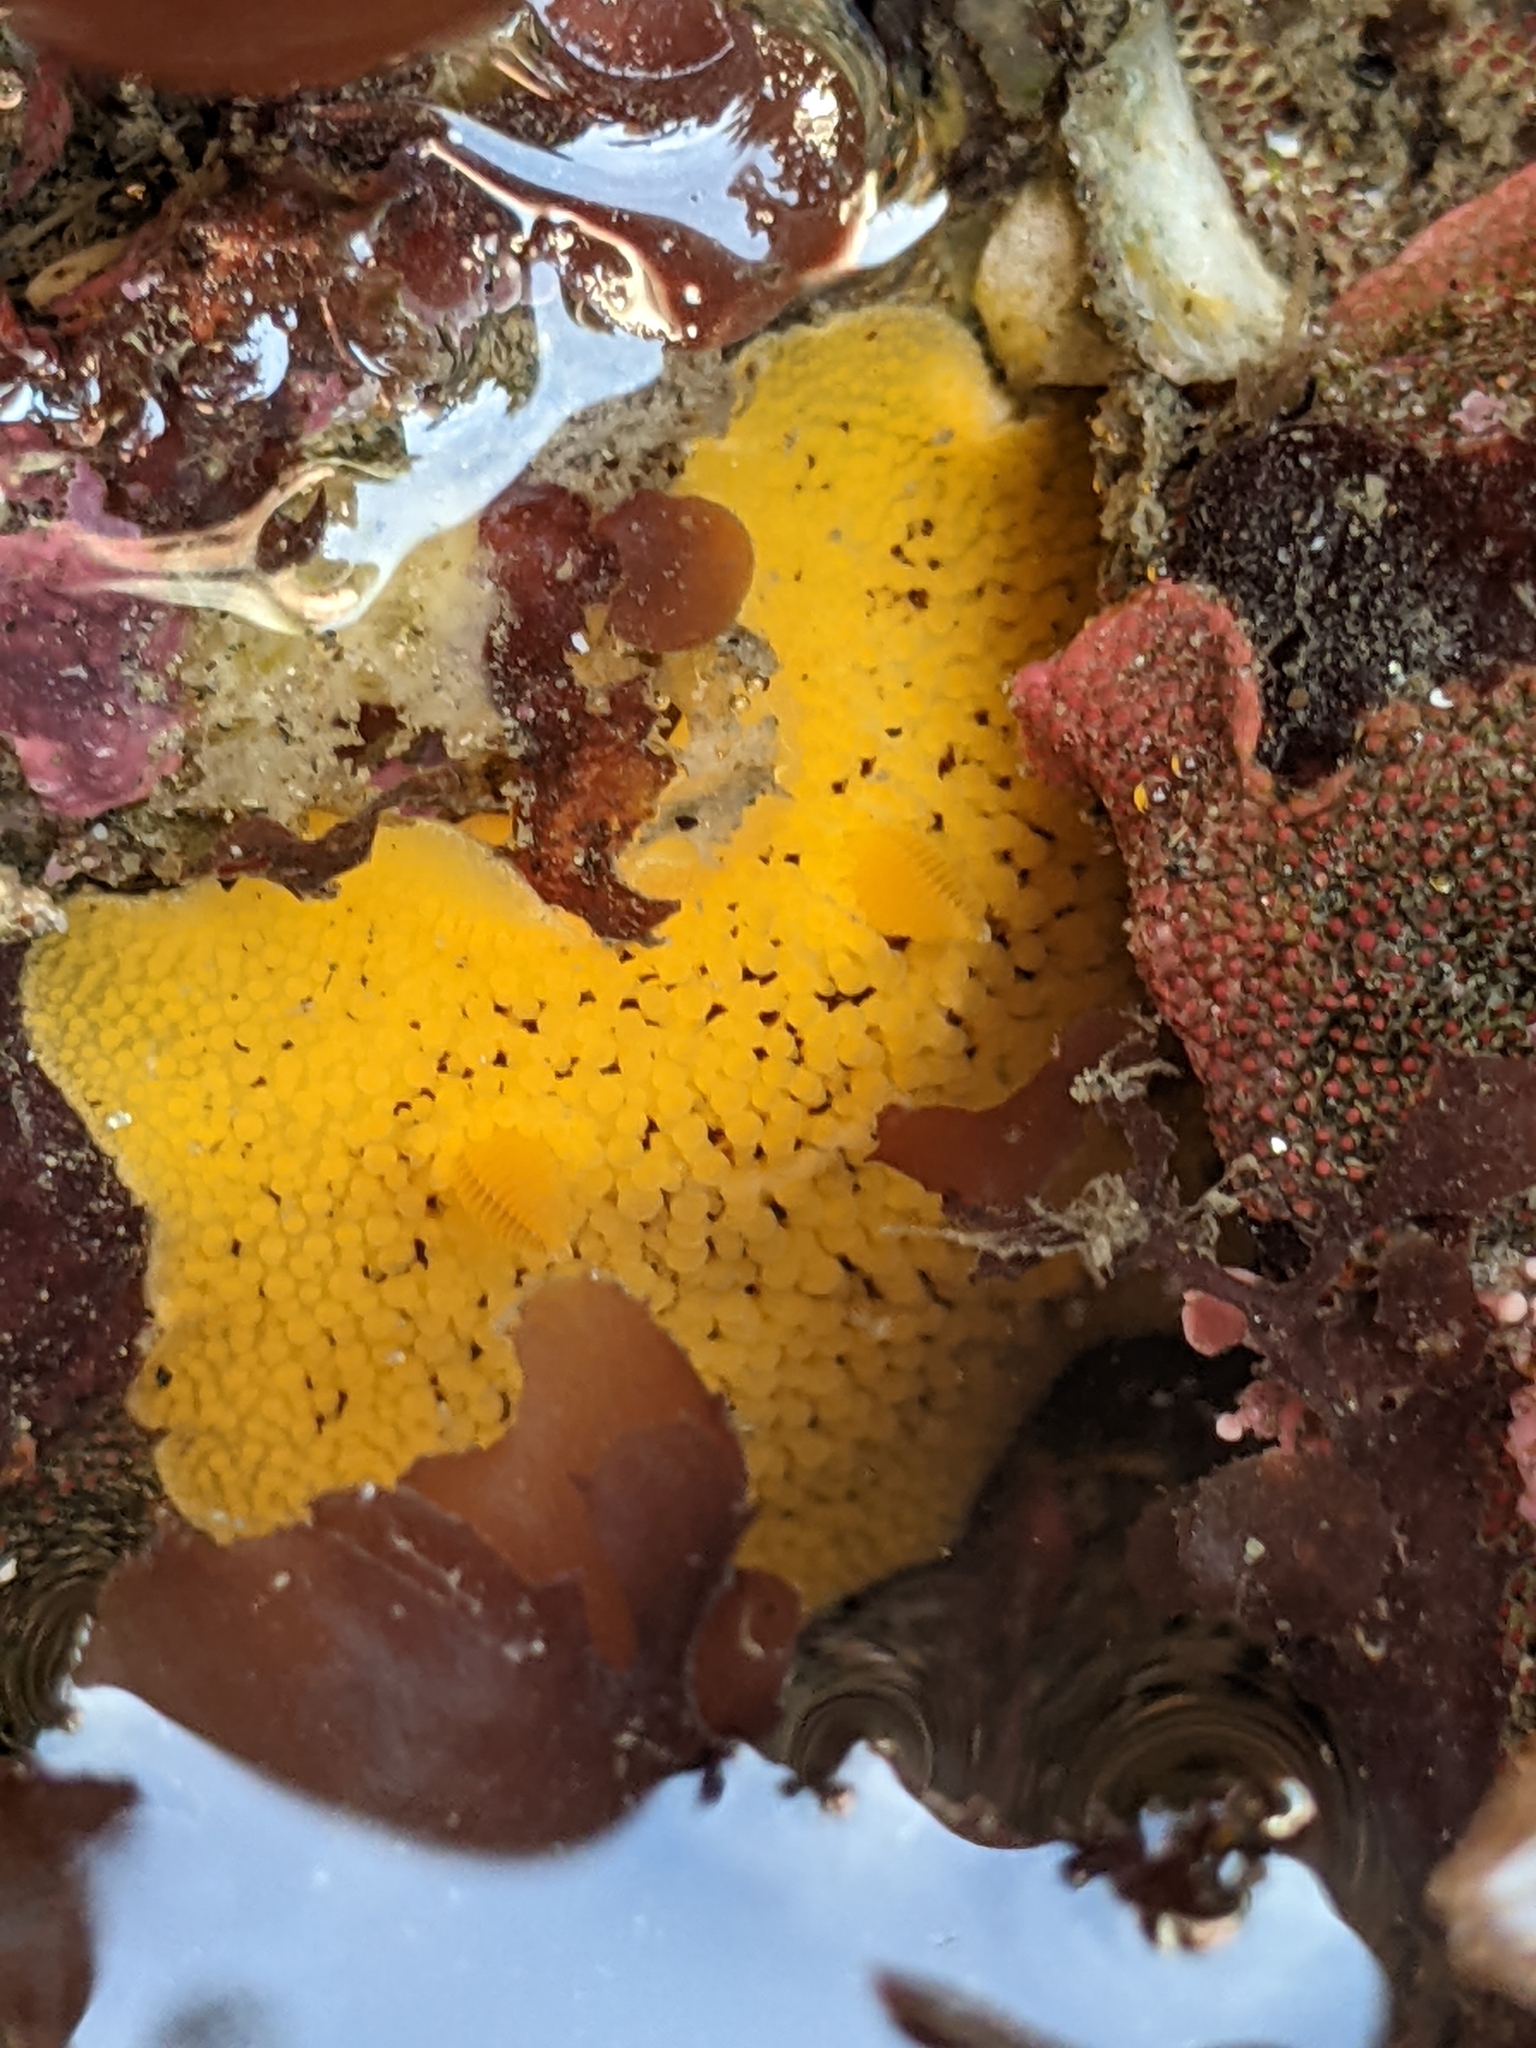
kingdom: Animalia
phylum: Mollusca
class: Gastropoda
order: Nudibranchia
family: Discodorididae
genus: Peltodoris
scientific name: Peltodoris nobilis
